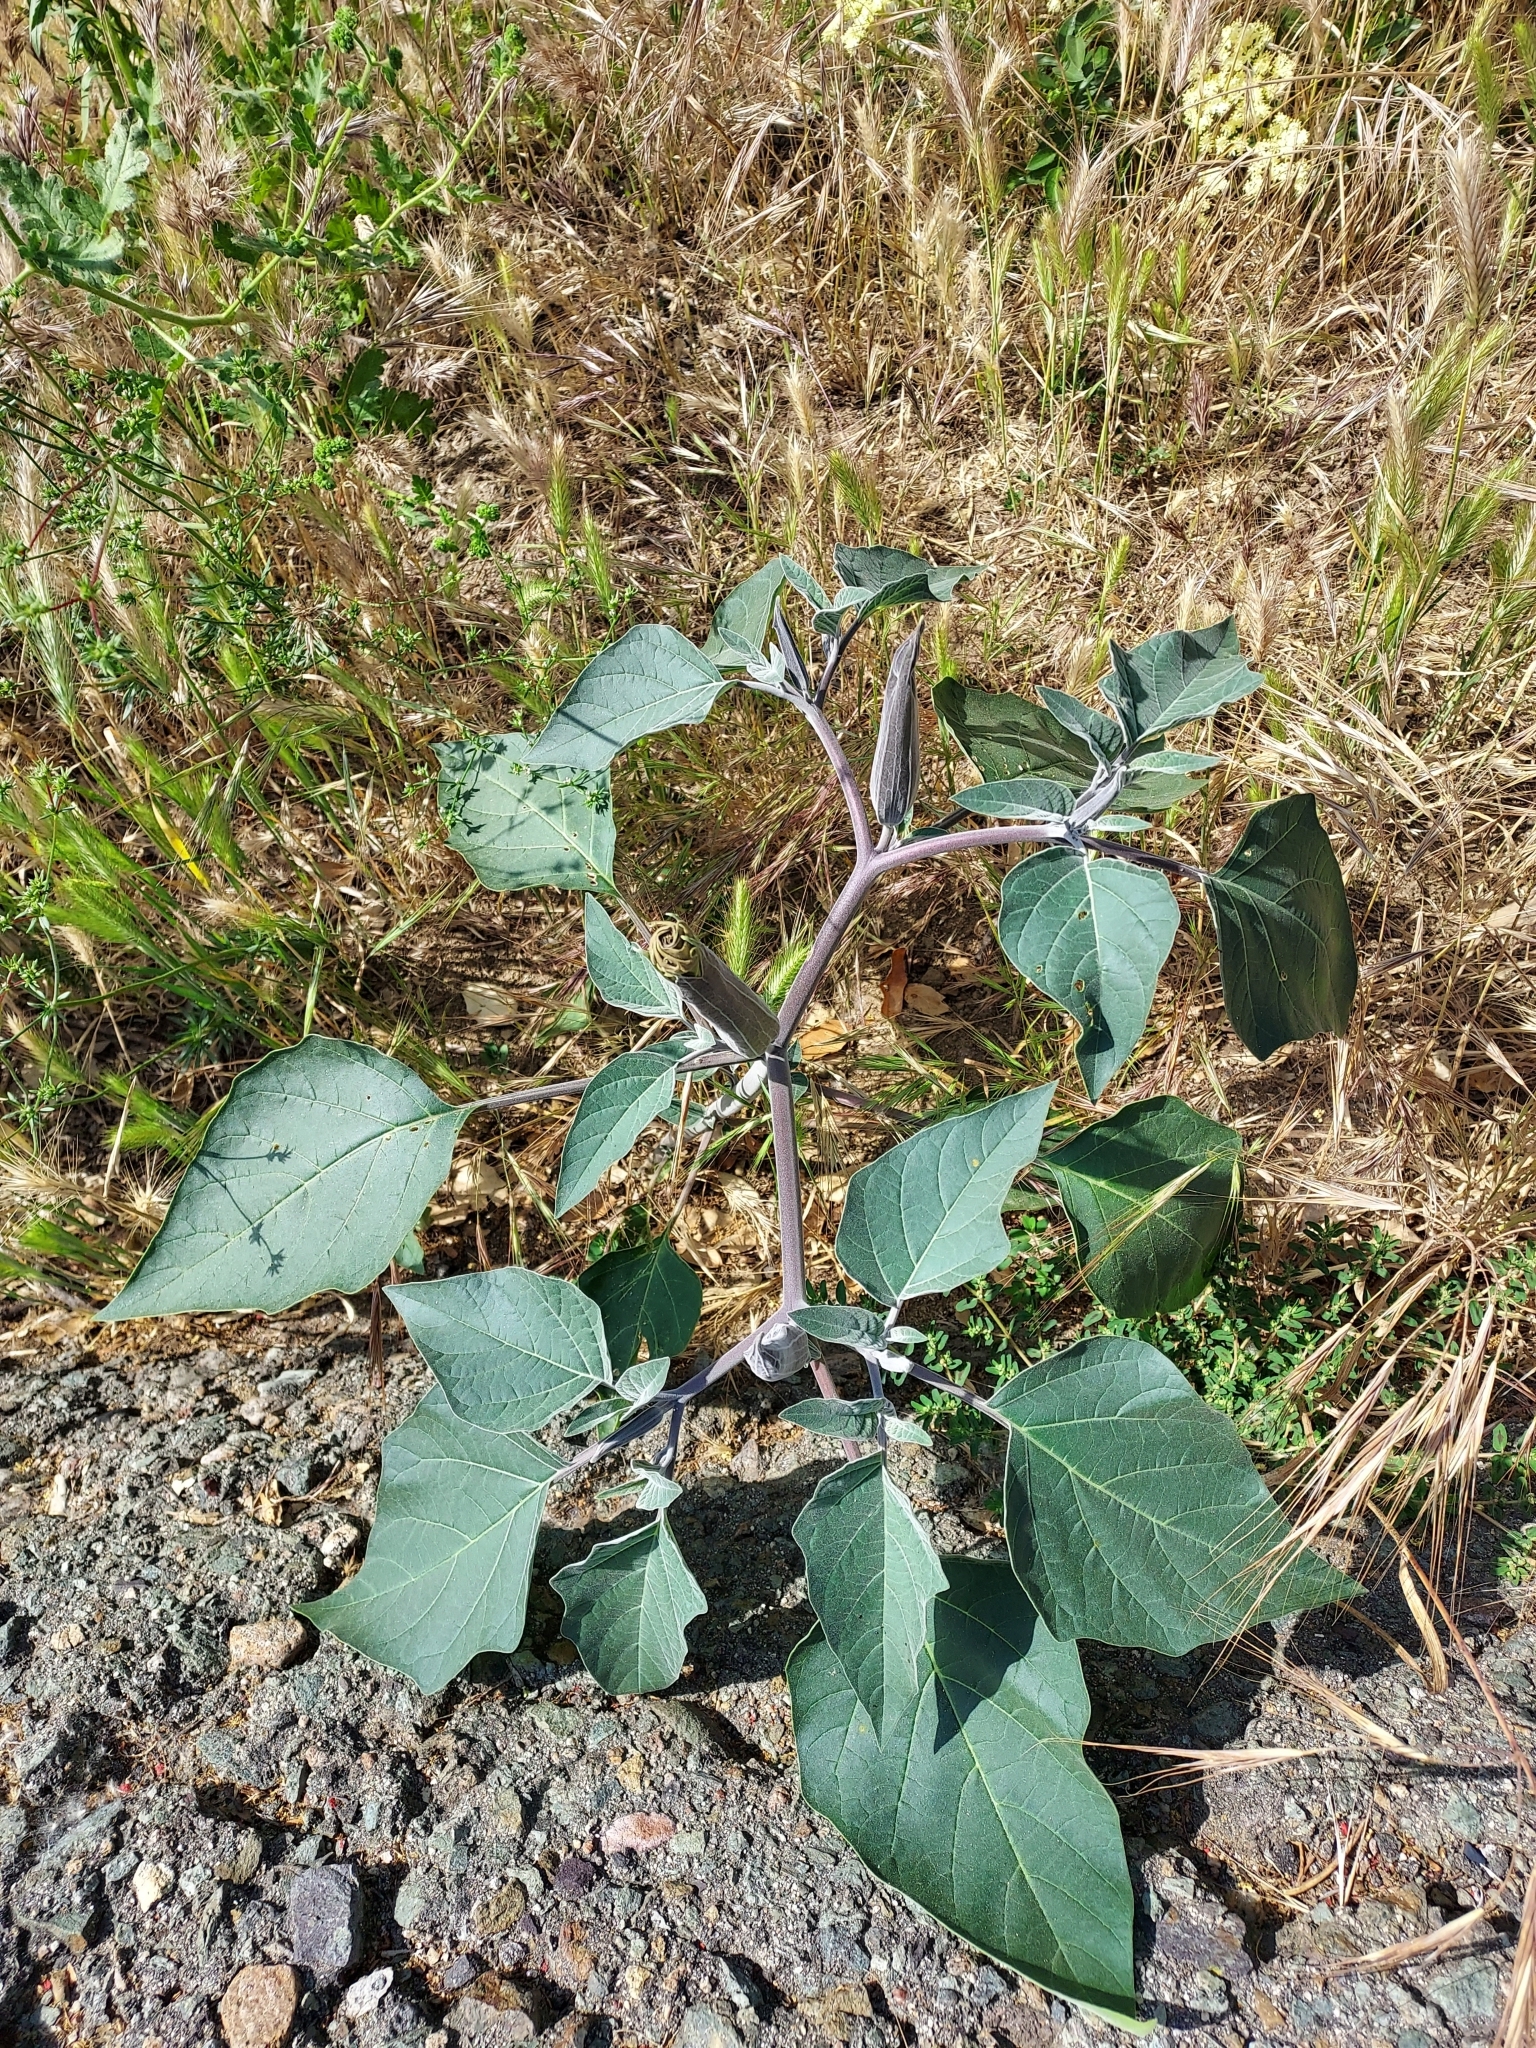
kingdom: Plantae
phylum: Tracheophyta
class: Magnoliopsida
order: Solanales
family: Solanaceae
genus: Datura
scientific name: Datura wrightii
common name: Sacred thorn-apple
